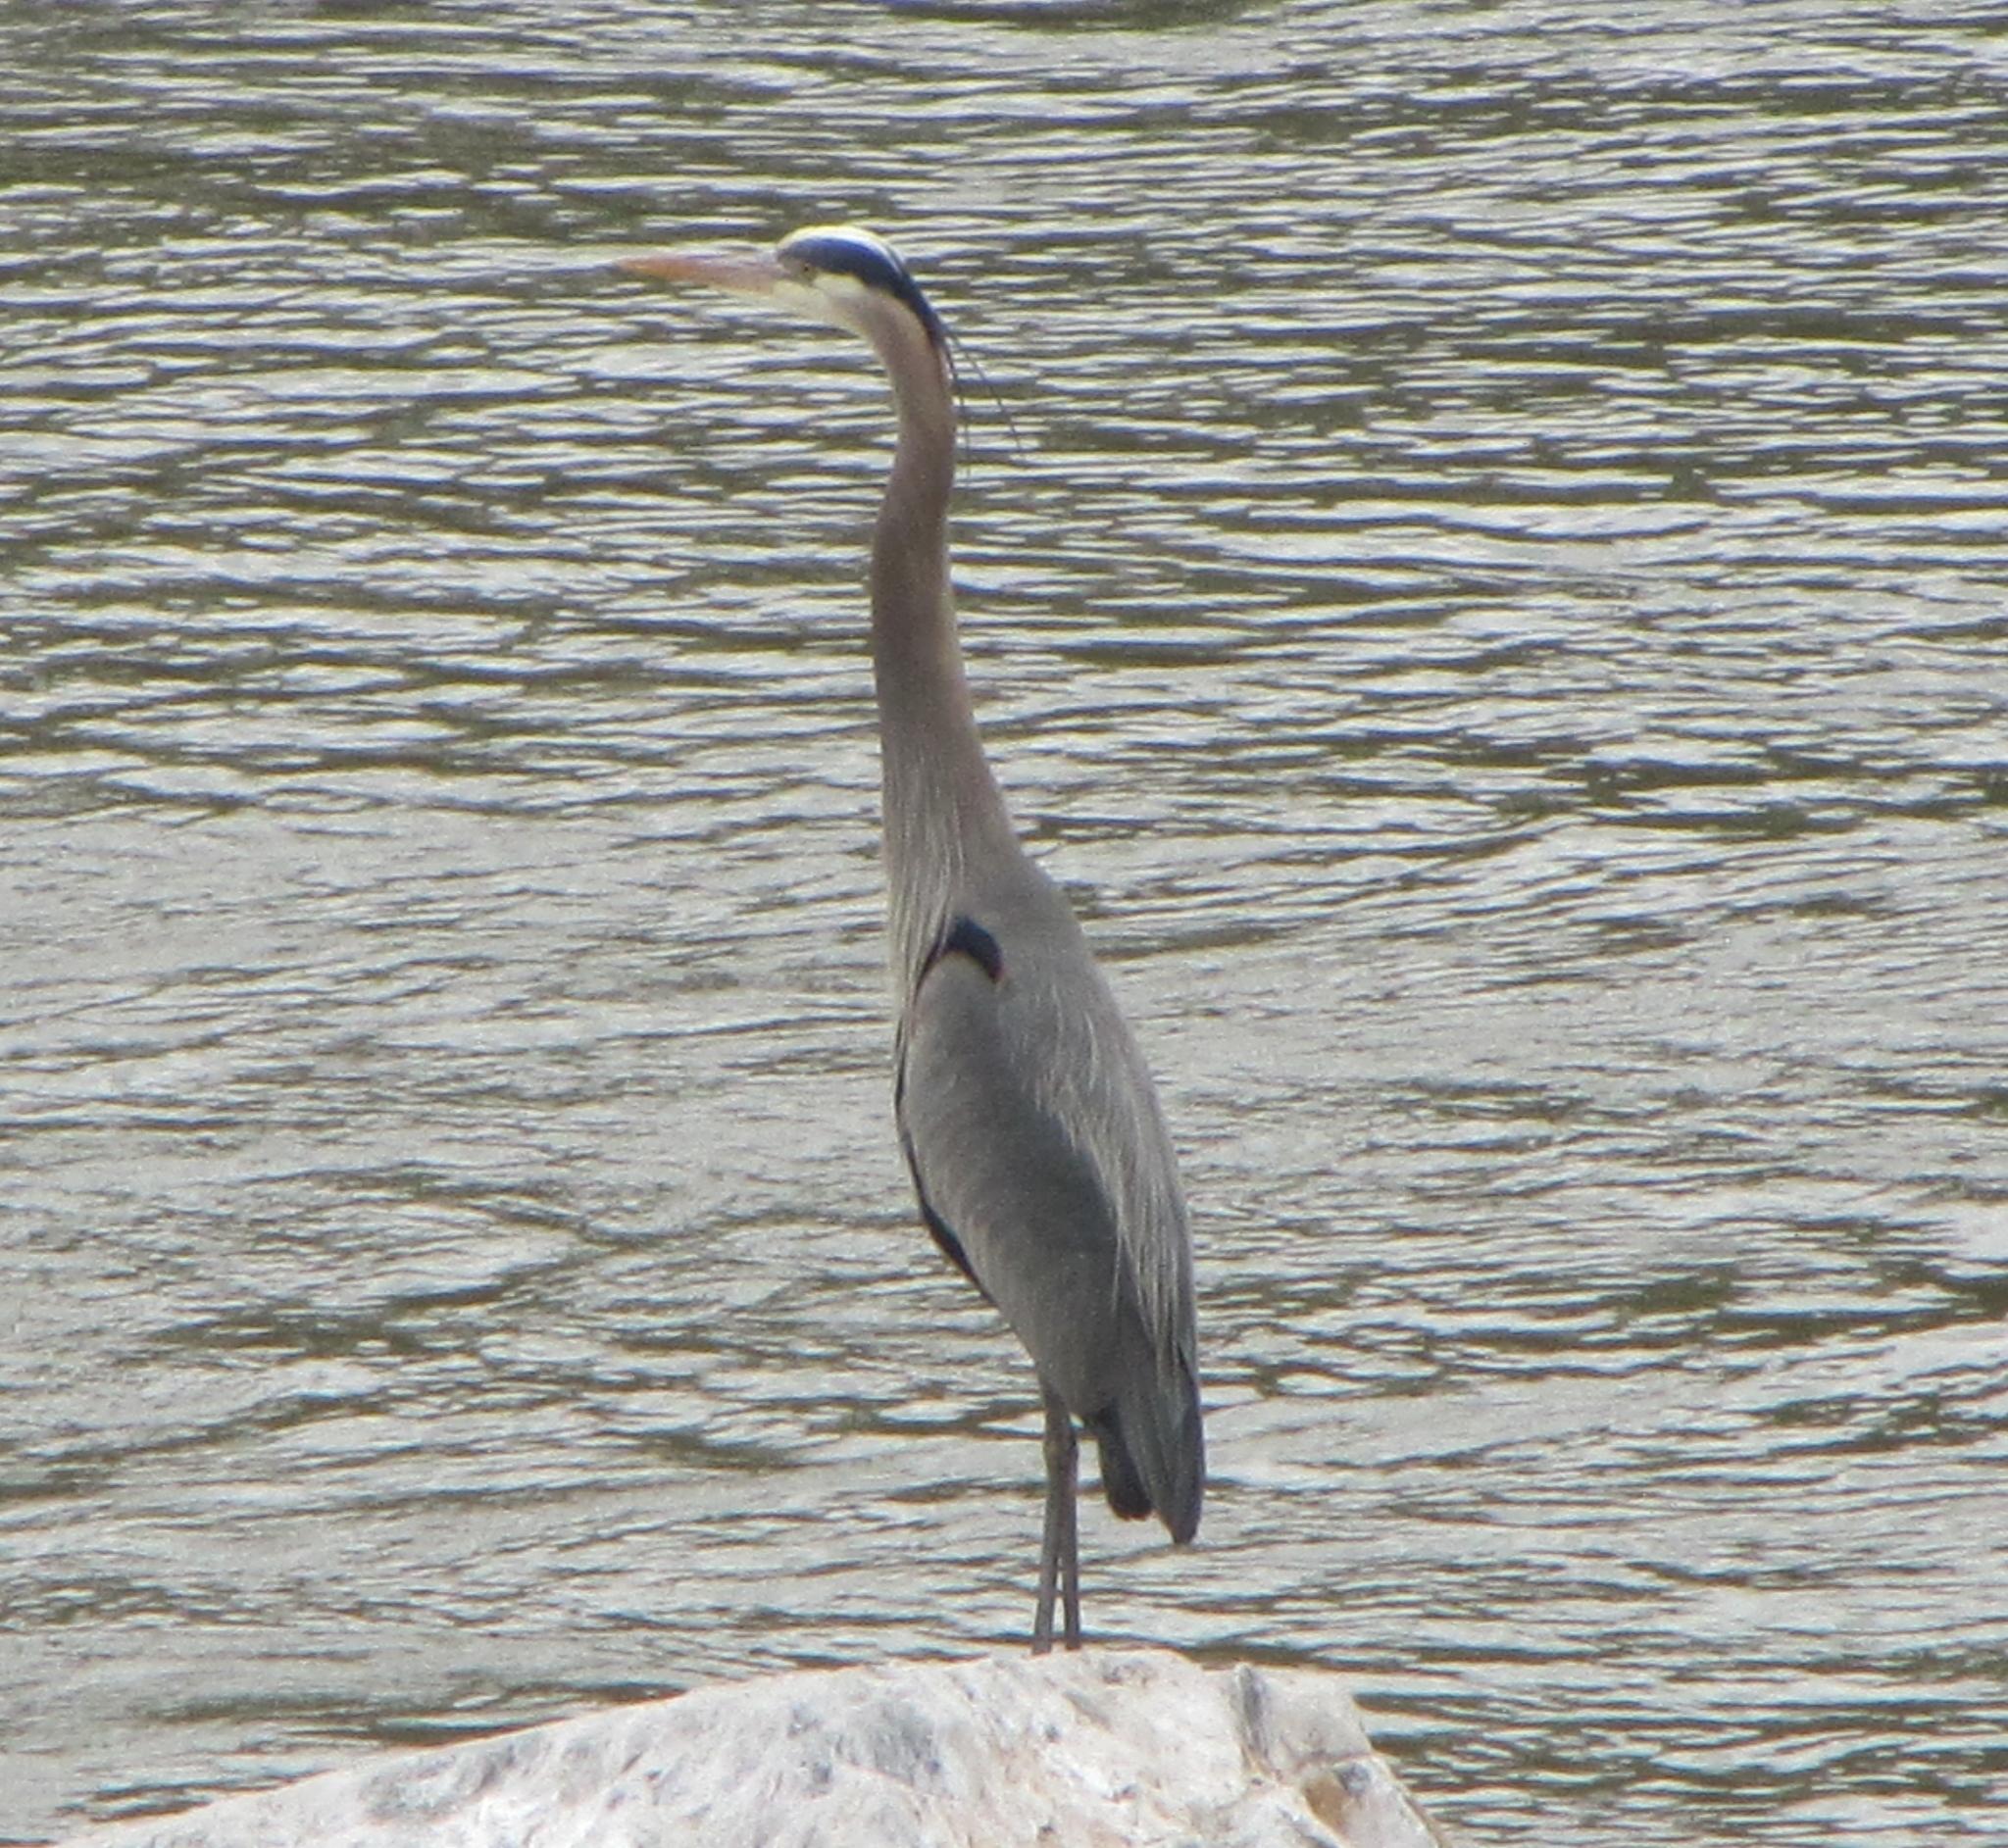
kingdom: Animalia
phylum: Chordata
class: Aves
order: Pelecaniformes
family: Ardeidae
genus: Ardea
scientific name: Ardea herodias
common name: Great blue heron
